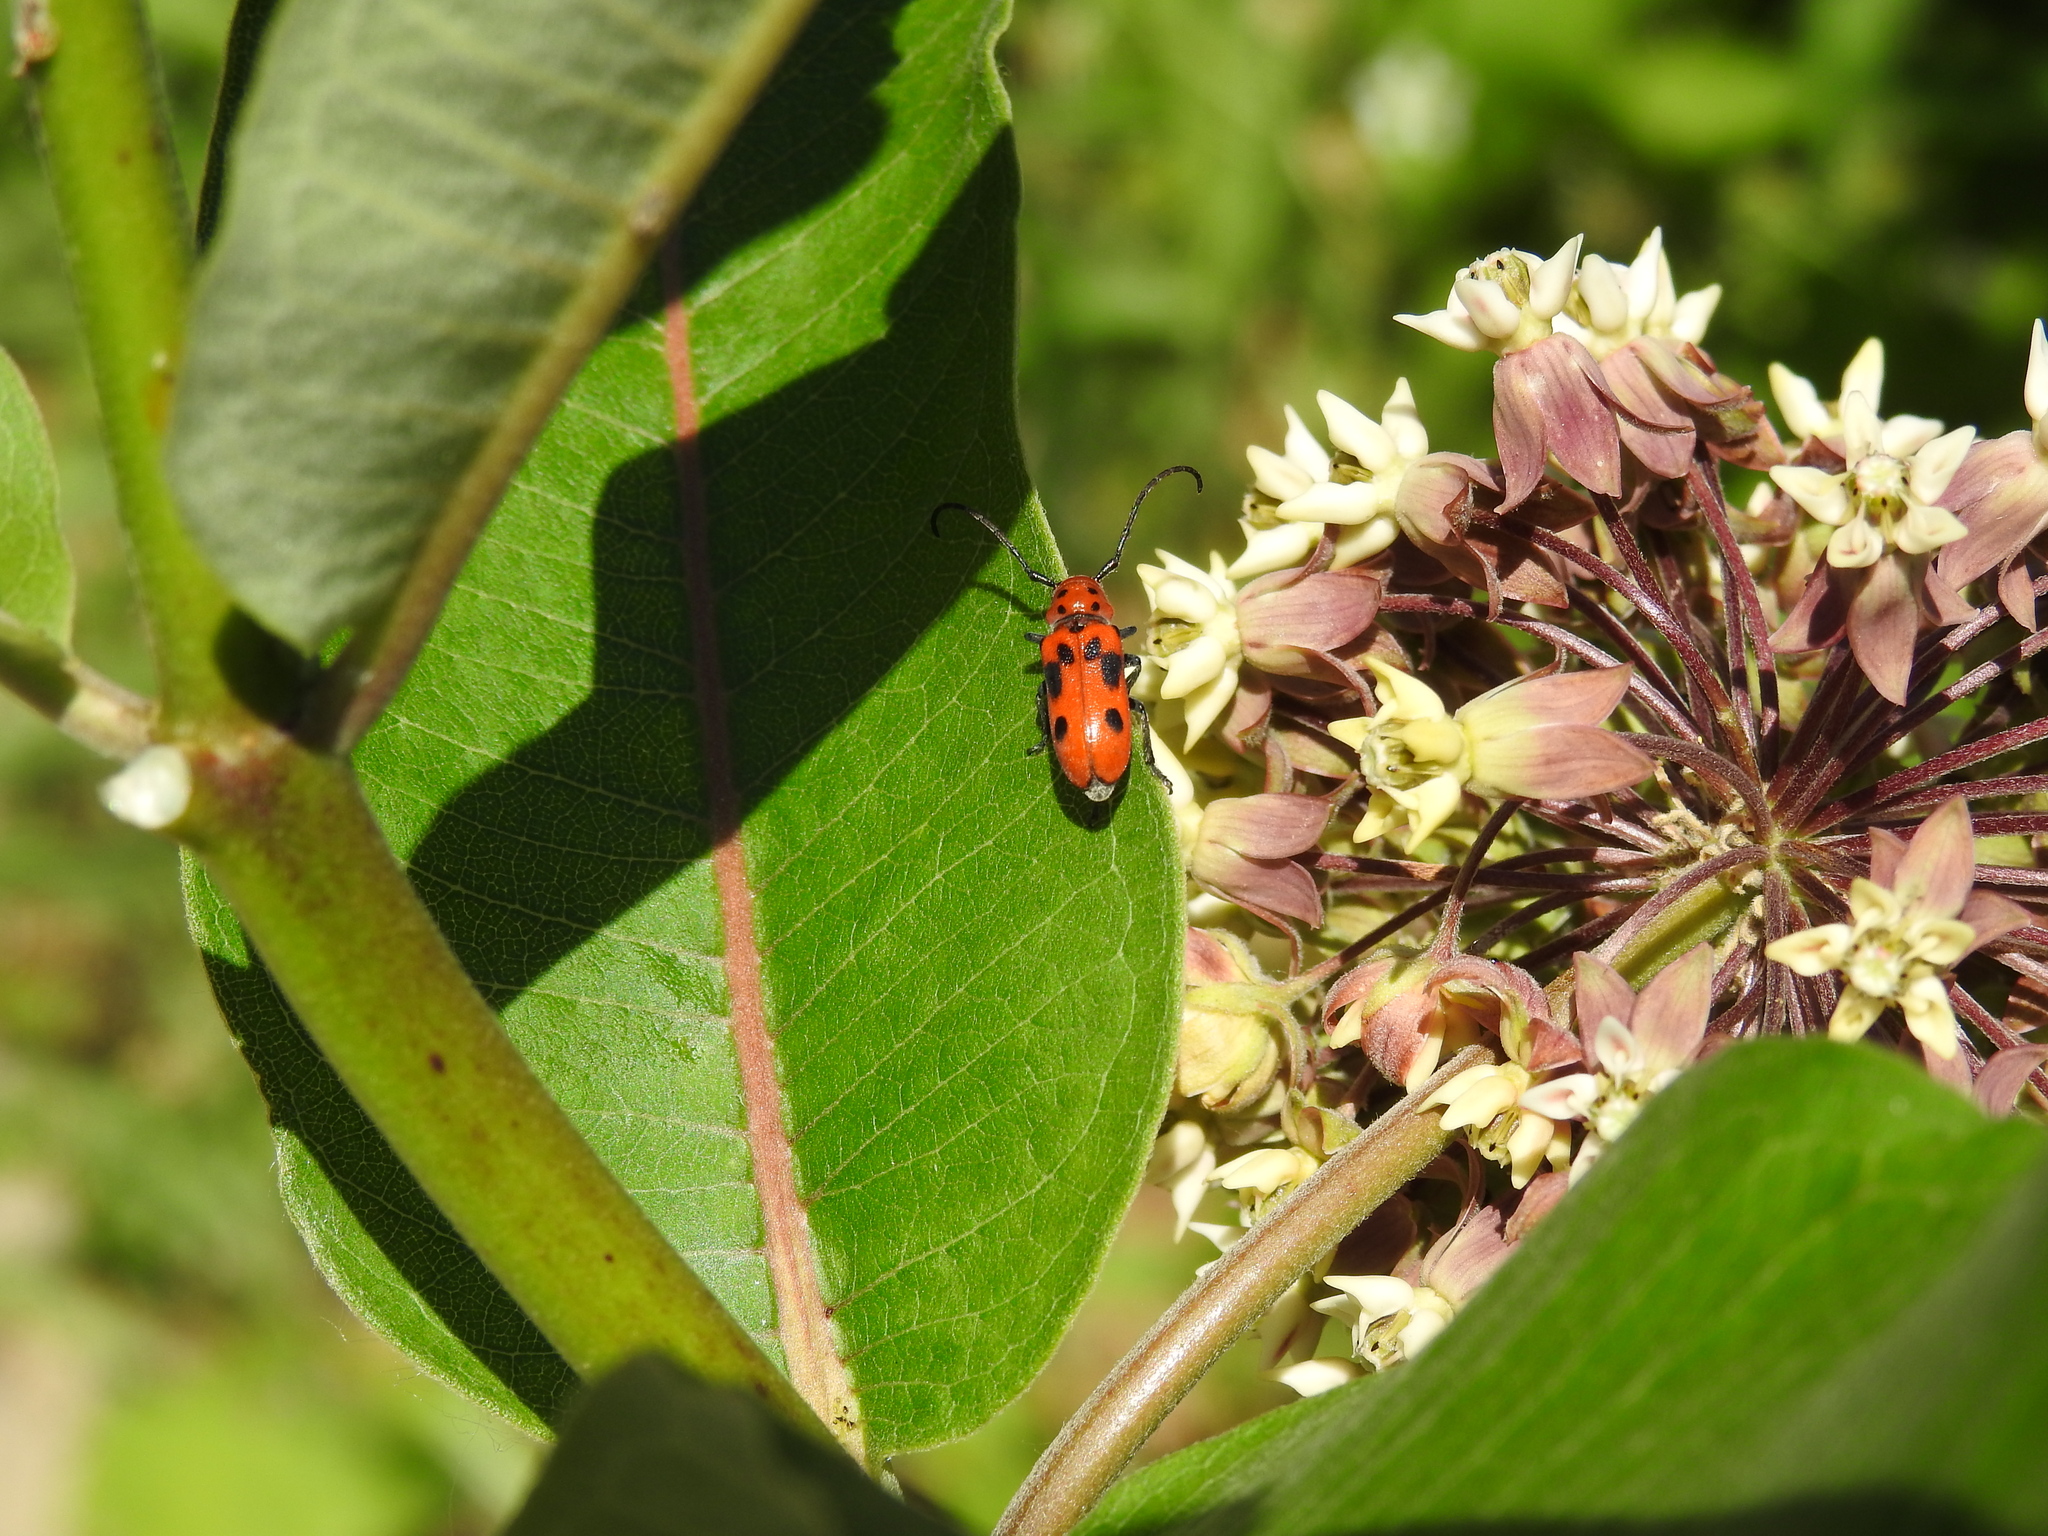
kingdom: Animalia
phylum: Arthropoda
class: Insecta
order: Coleoptera
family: Cerambycidae
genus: Tetraopes
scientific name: Tetraopes tetrophthalmus
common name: Red milkweed beetle
